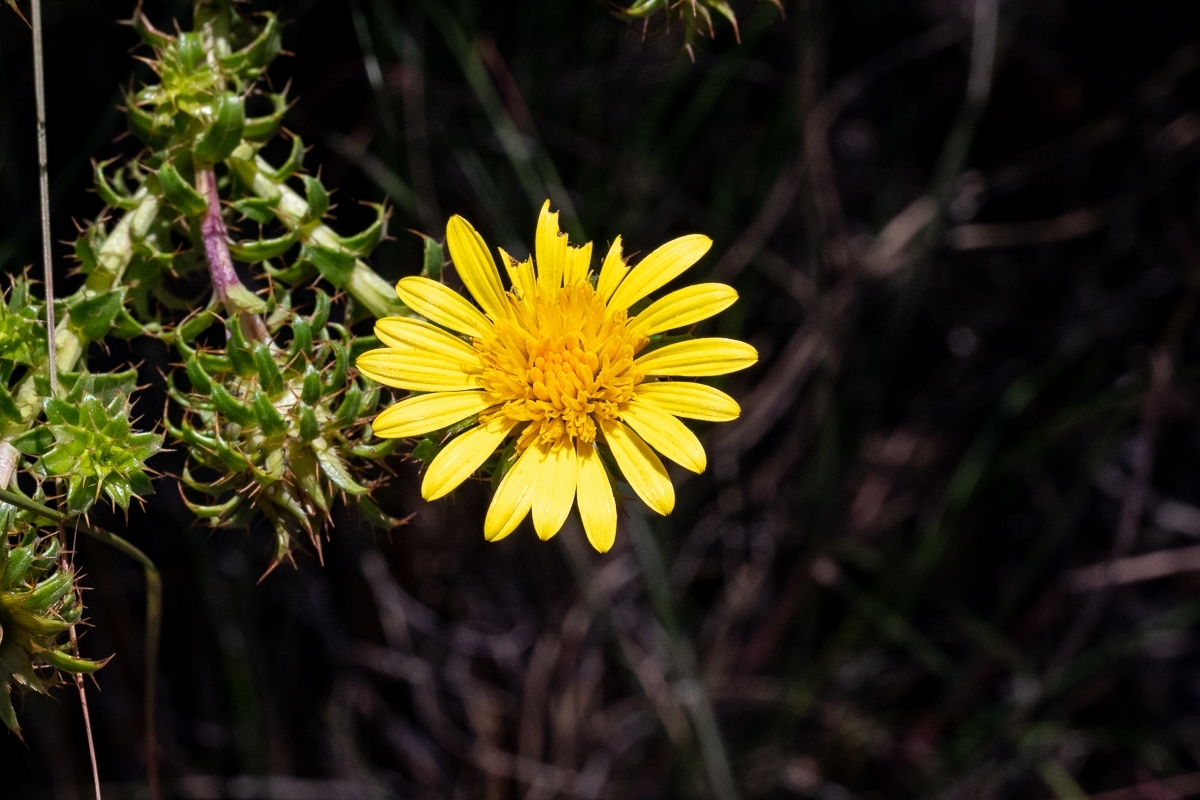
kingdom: Plantae
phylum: Tracheophyta
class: Magnoliopsida
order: Asterales
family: Asteraceae
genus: Cullumia
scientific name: Cullumia setosa
